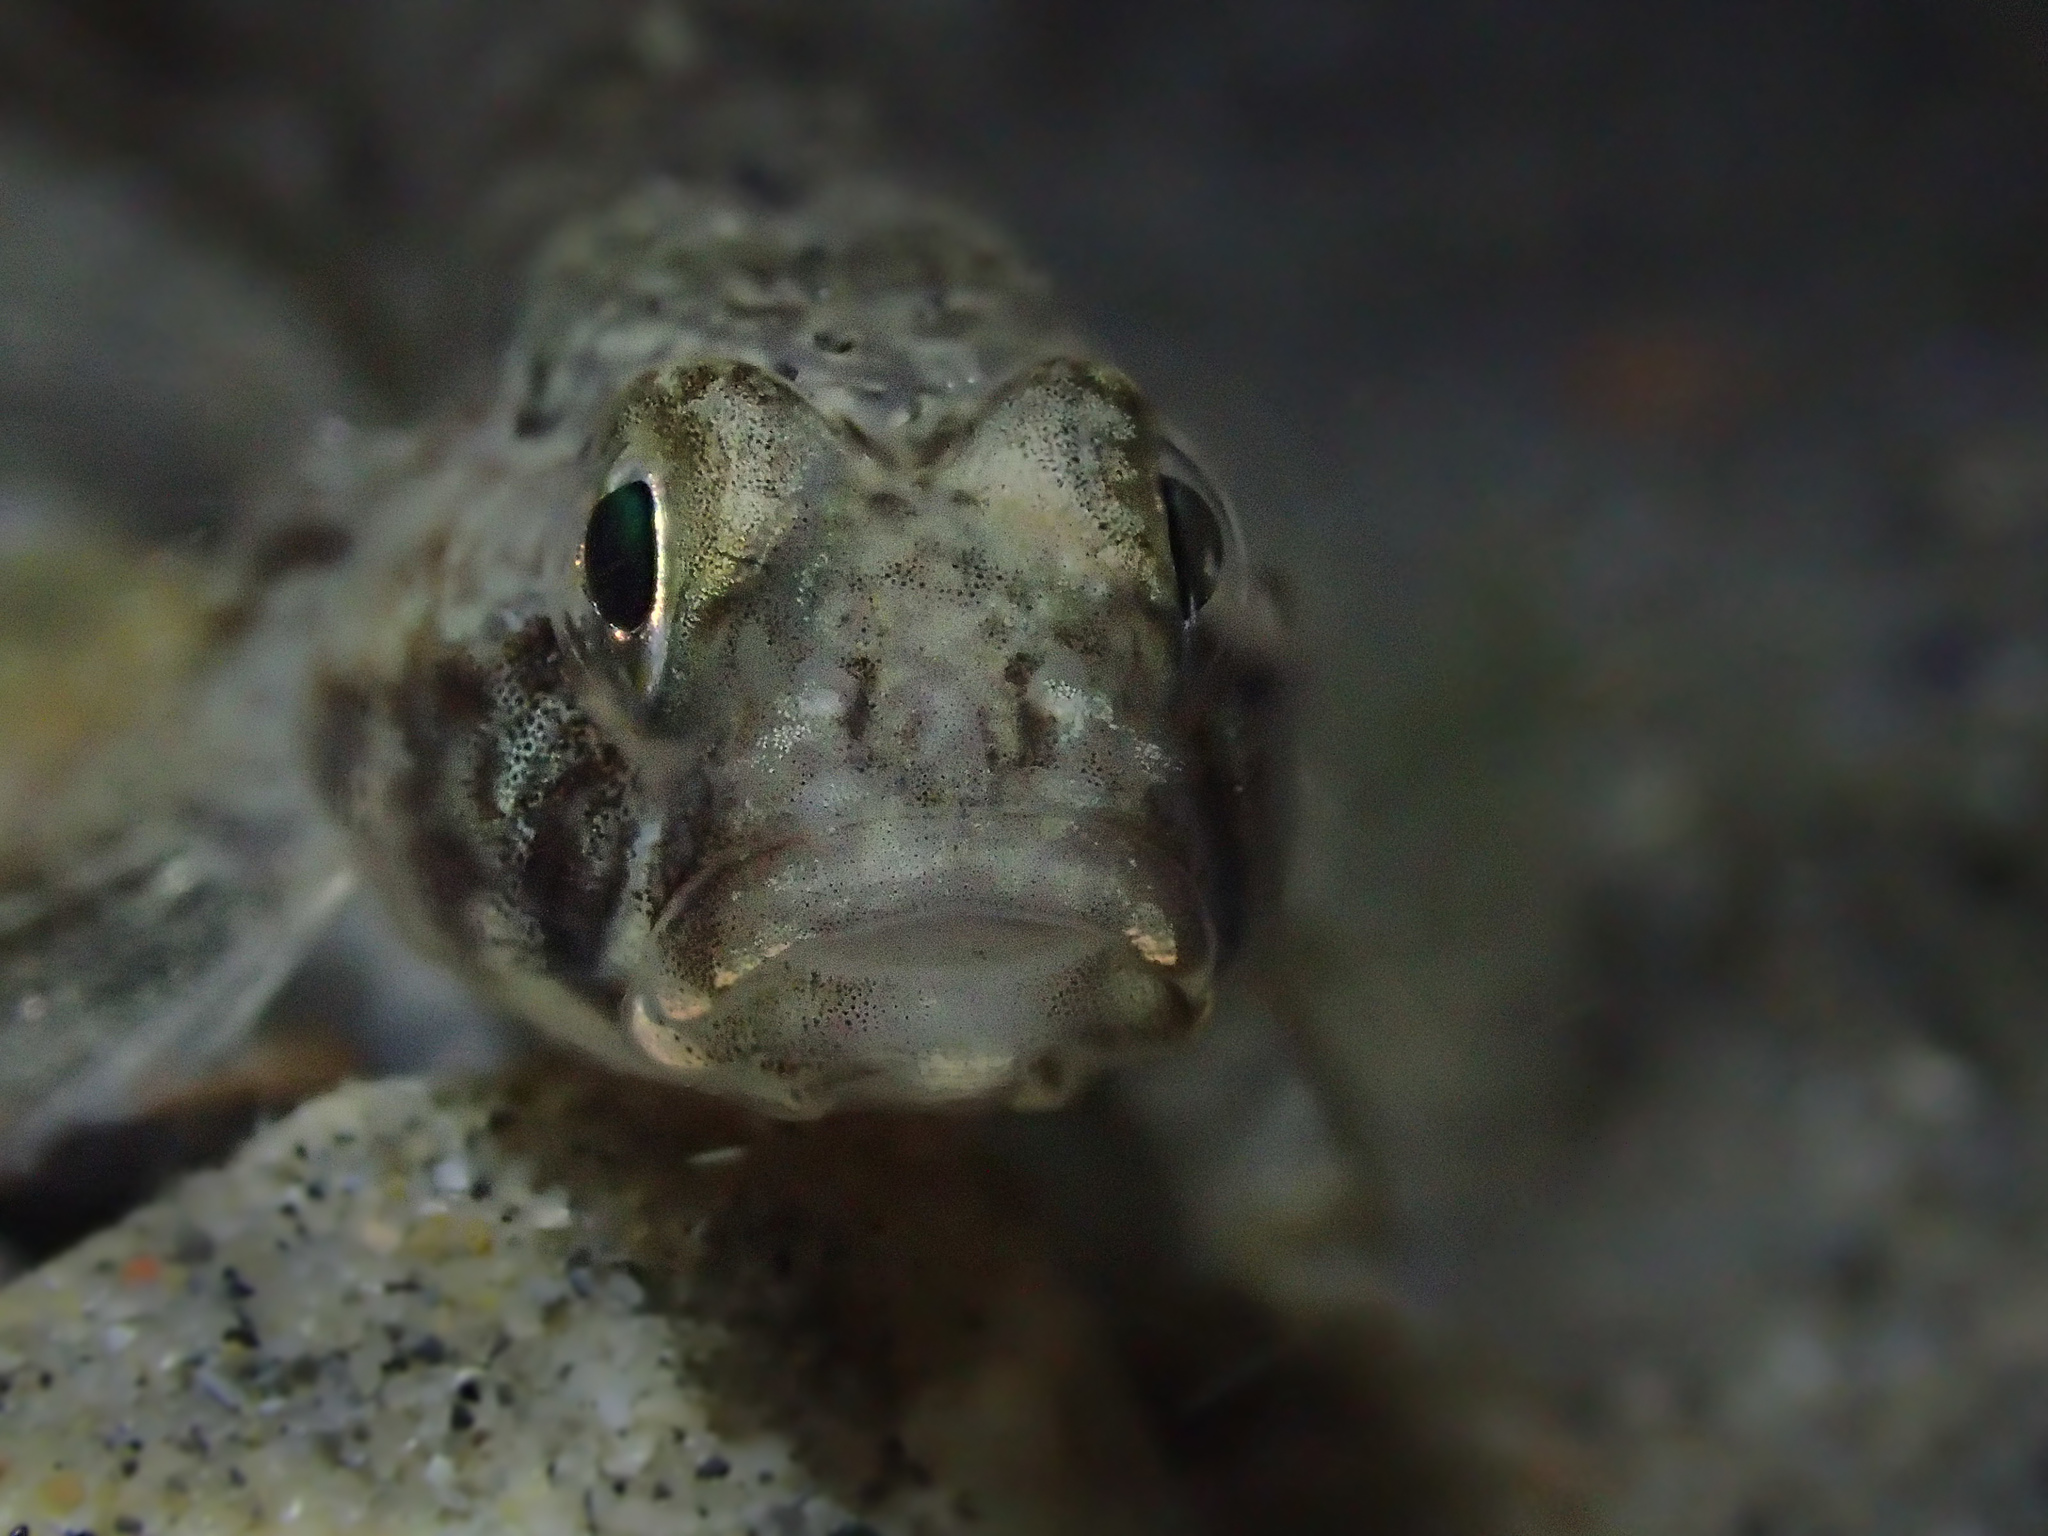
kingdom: Animalia
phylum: Chordata
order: Perciformes
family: Gobiidae
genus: Gobius
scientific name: Gobius niger
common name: Black goby
